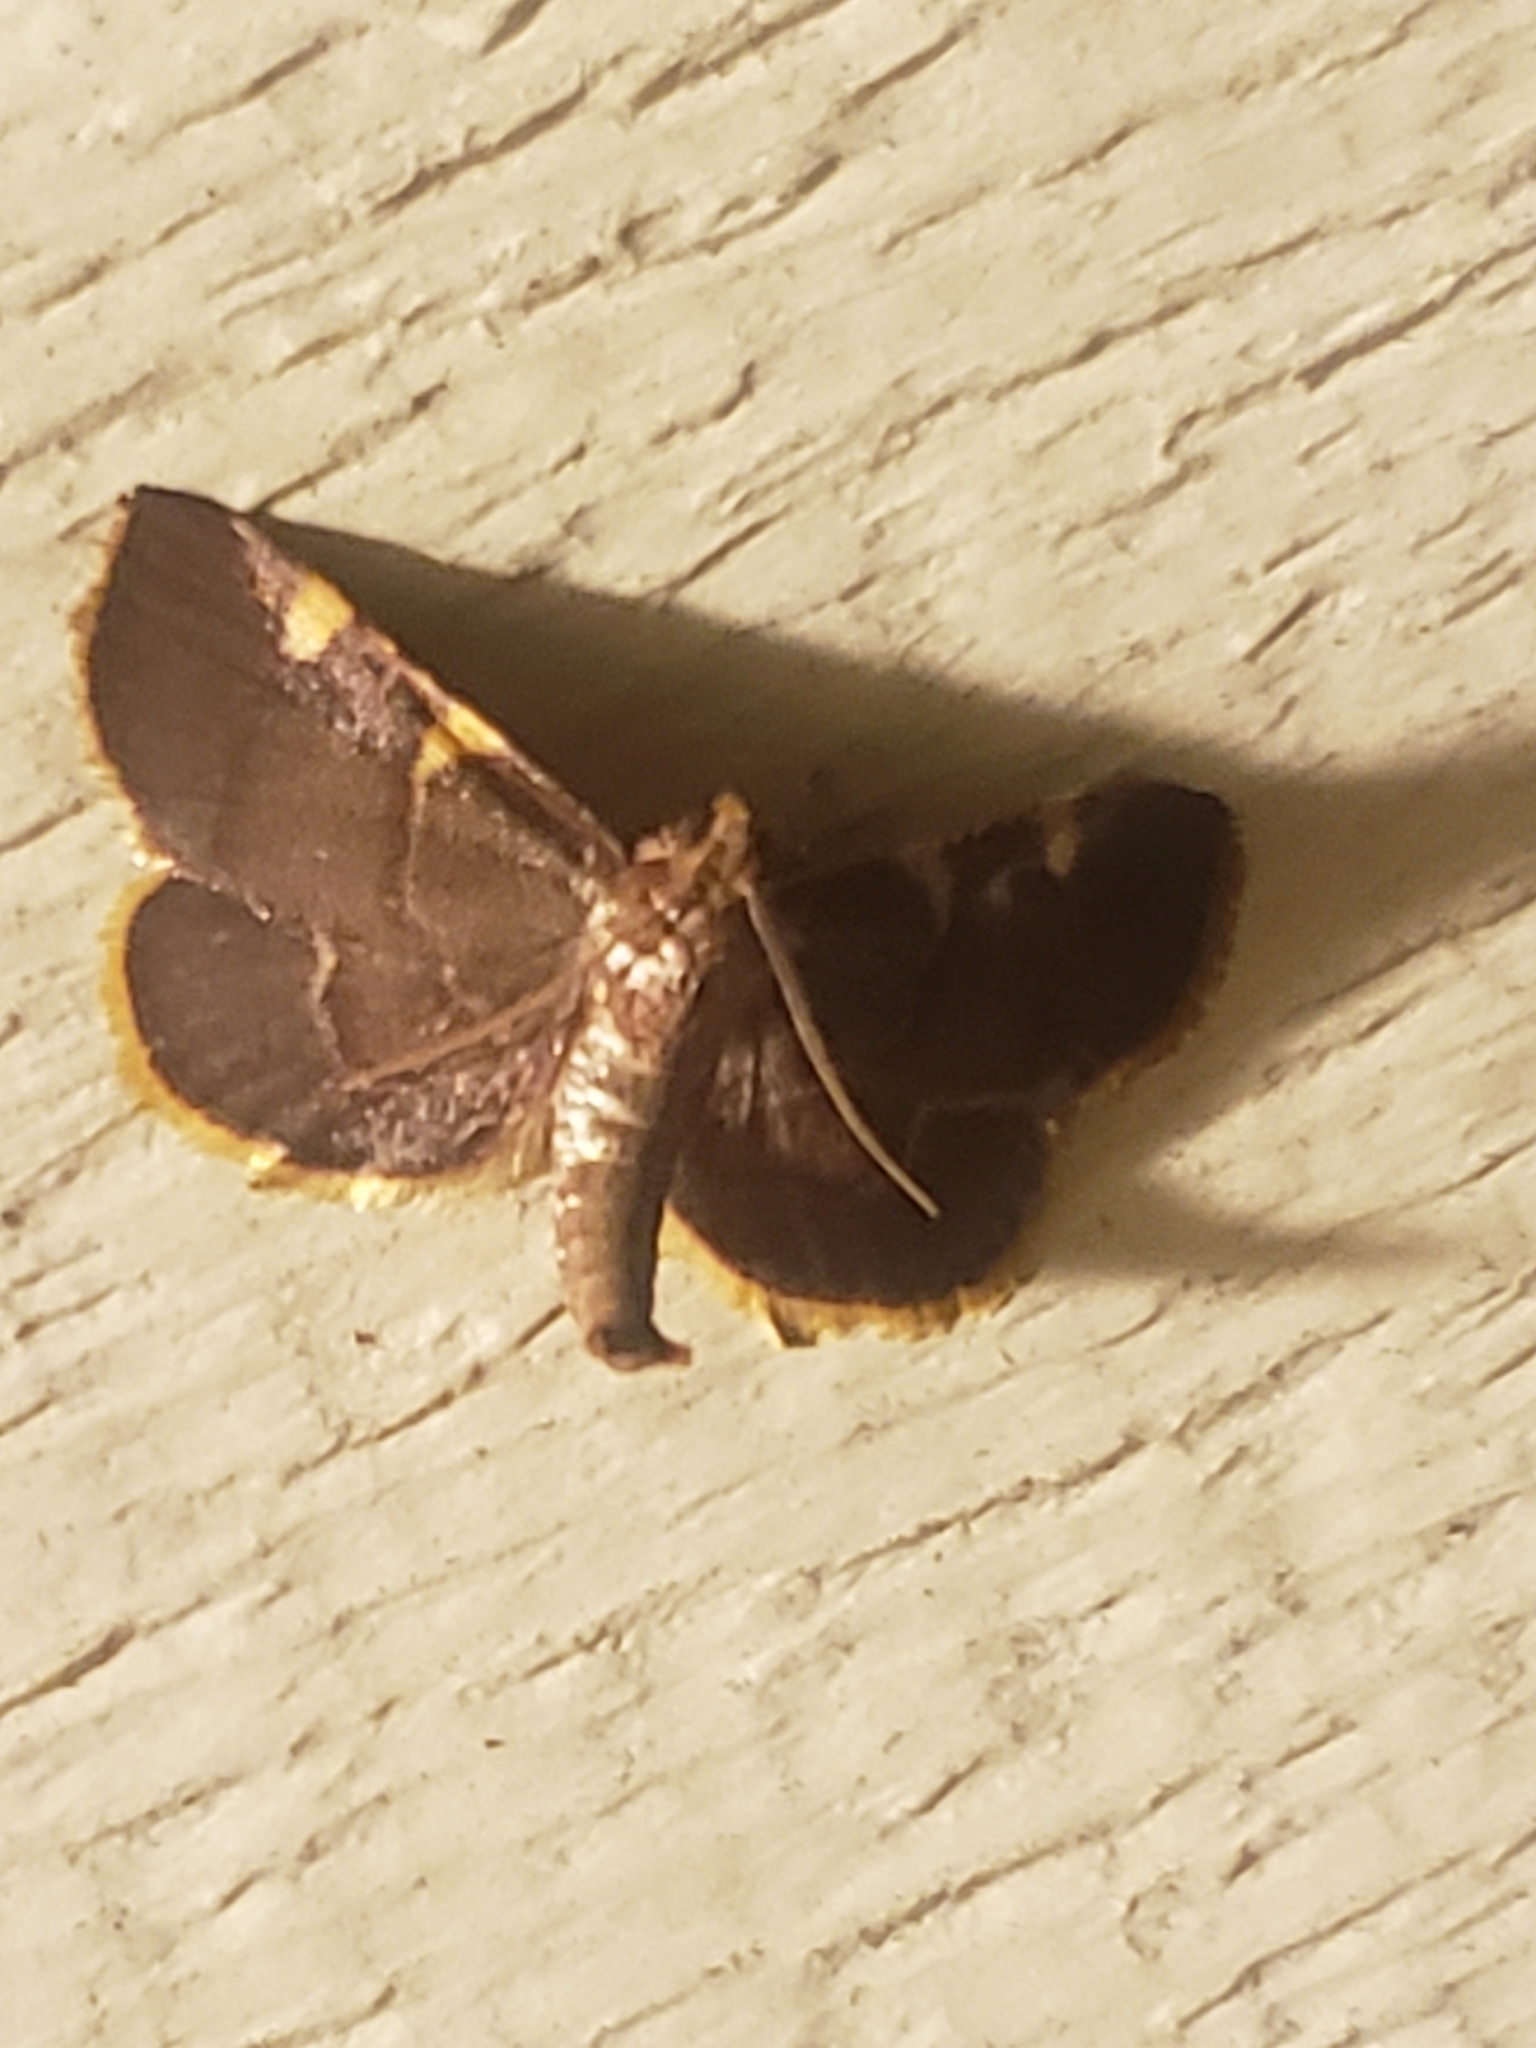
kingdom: Animalia
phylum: Arthropoda
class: Insecta
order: Lepidoptera
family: Pyralidae
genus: Hypsopygia
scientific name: Hypsopygia olinalis
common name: Yellow-fringed dolichomia moth
